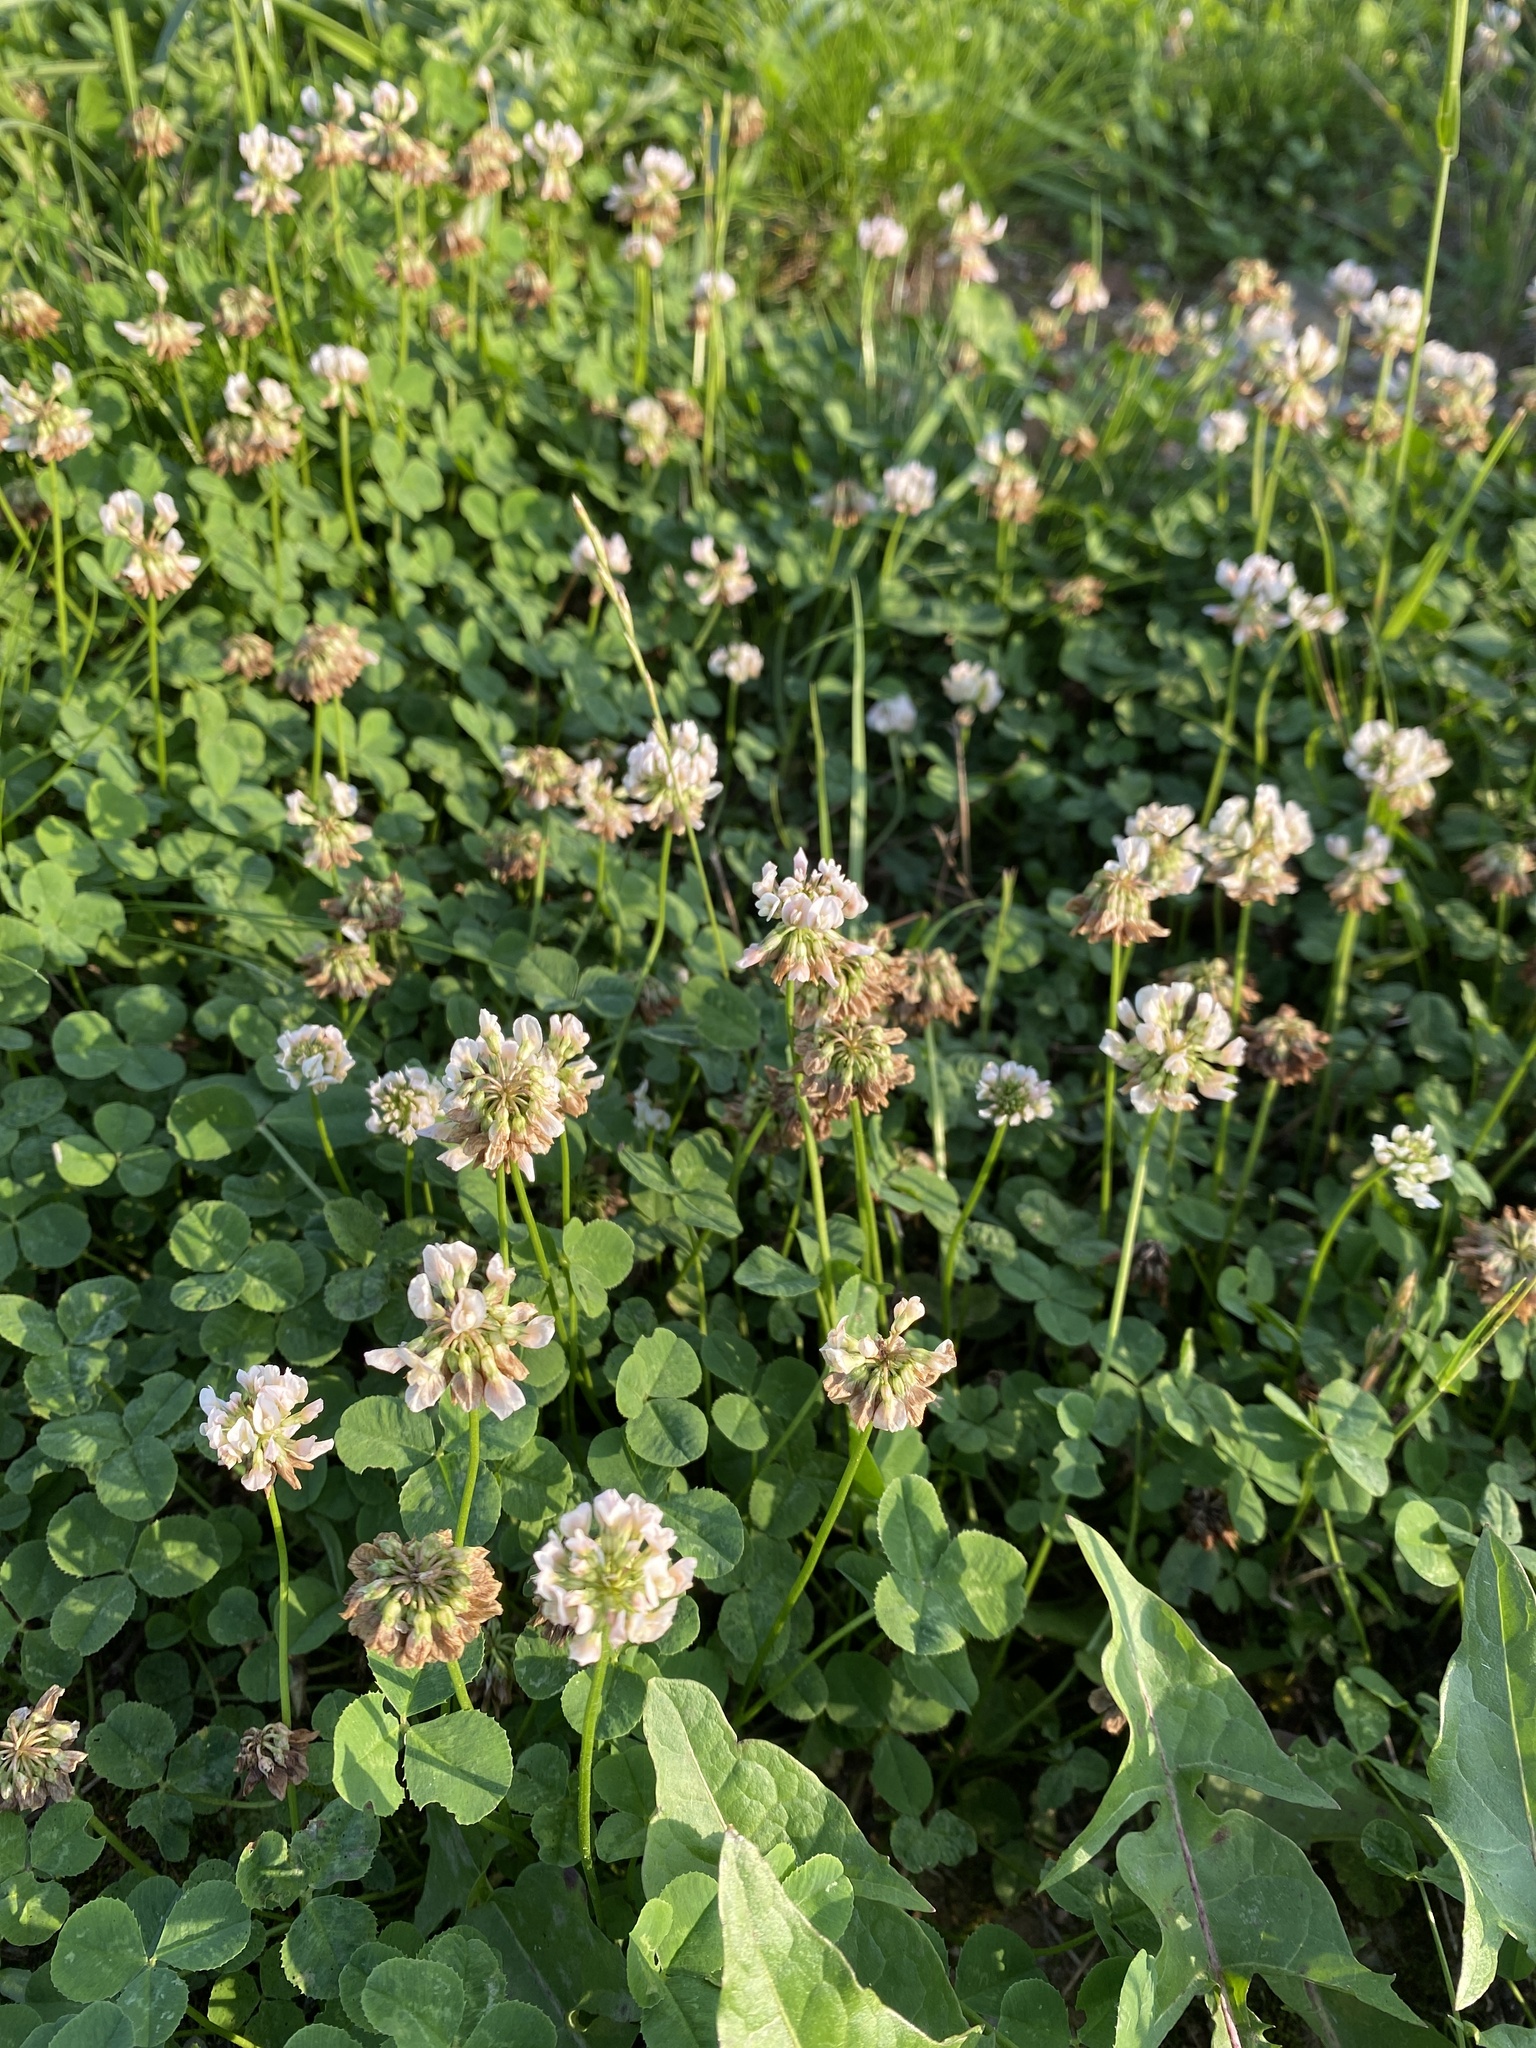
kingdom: Plantae
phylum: Tracheophyta
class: Magnoliopsida
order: Fabales
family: Fabaceae
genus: Trifolium
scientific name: Trifolium repens
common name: White clover
